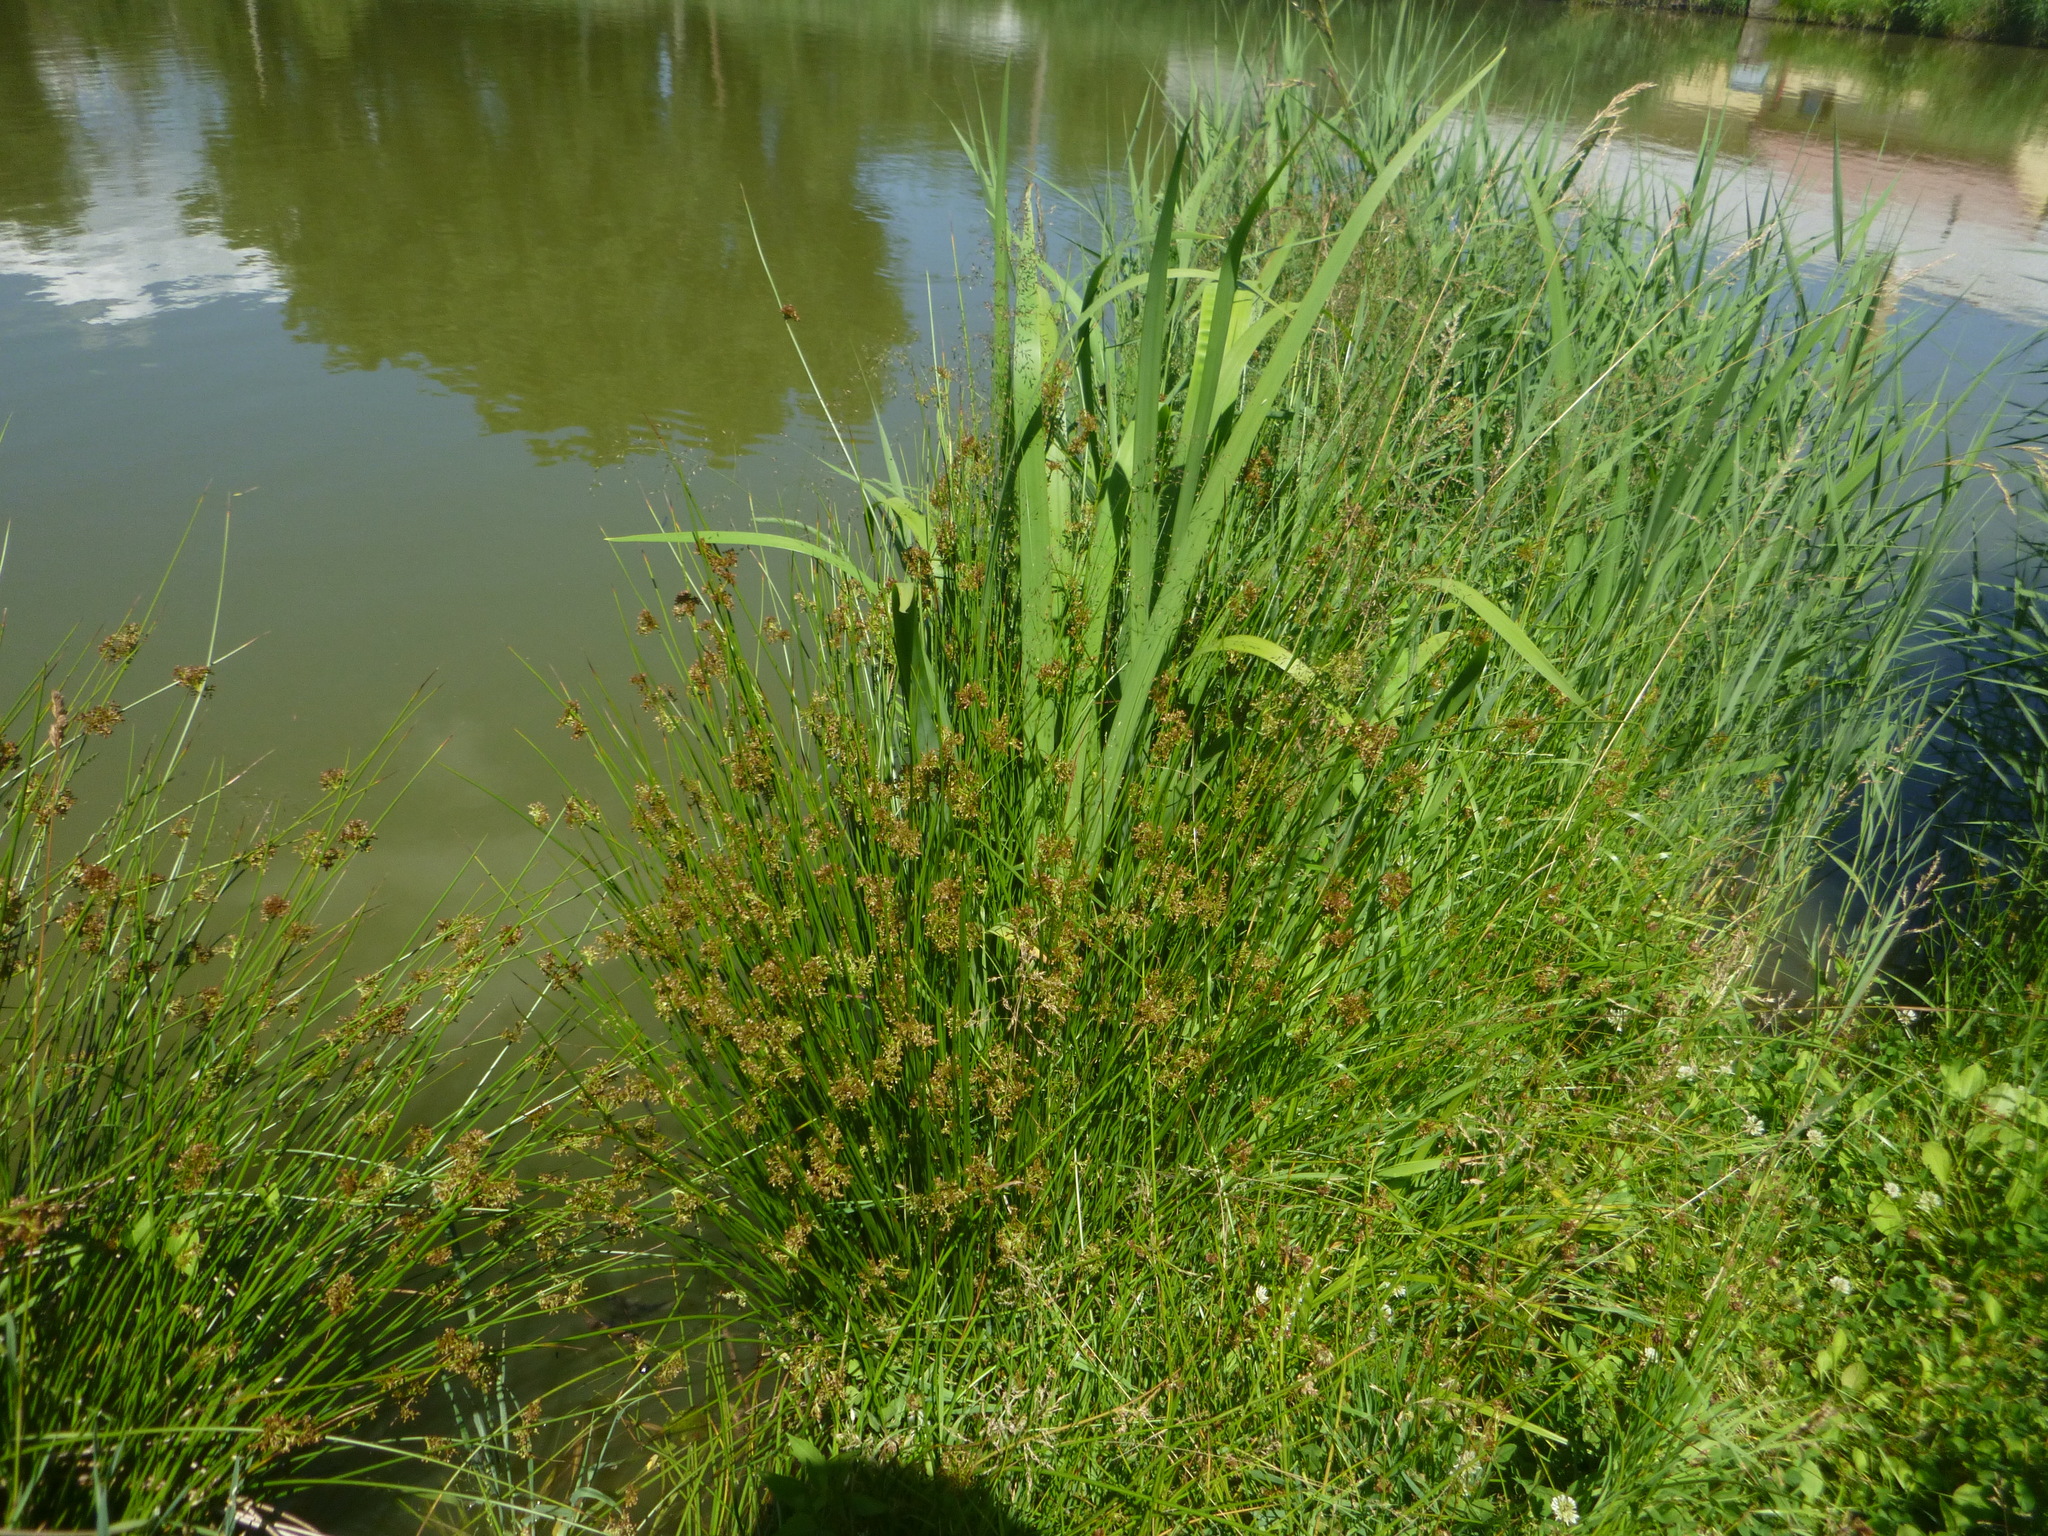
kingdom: Plantae
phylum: Tracheophyta
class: Liliopsida
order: Poales
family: Juncaceae
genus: Juncus
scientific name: Juncus effusus
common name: Soft rush
